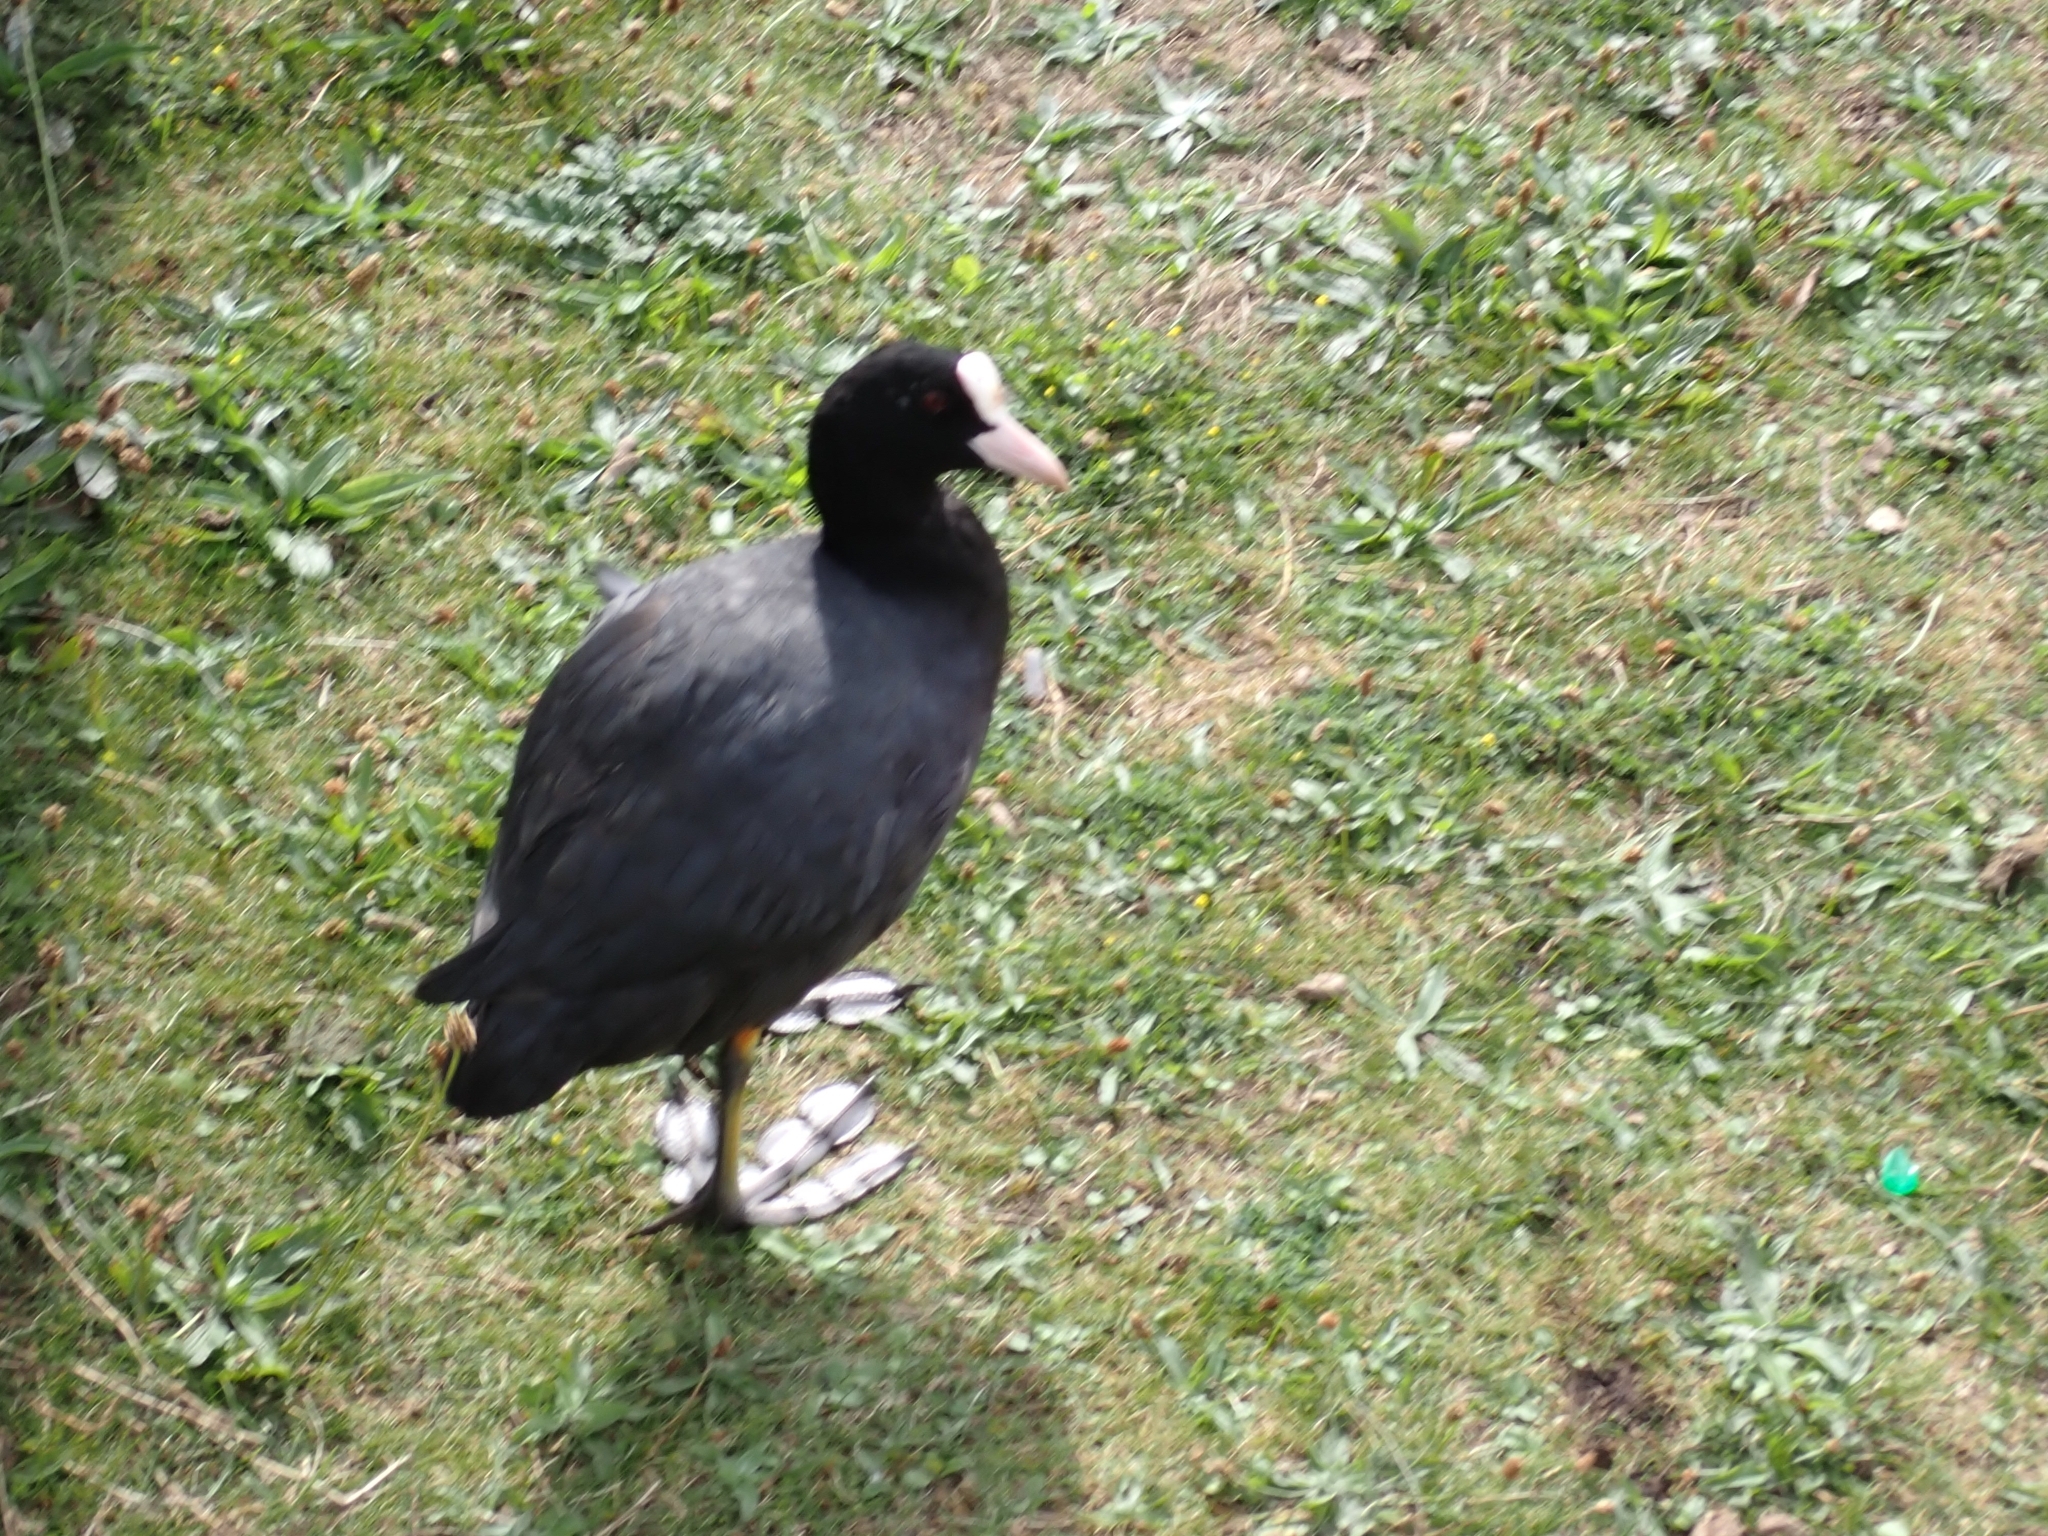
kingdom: Animalia
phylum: Chordata
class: Aves
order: Gruiformes
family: Rallidae
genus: Fulica
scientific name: Fulica atra
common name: Eurasian coot
